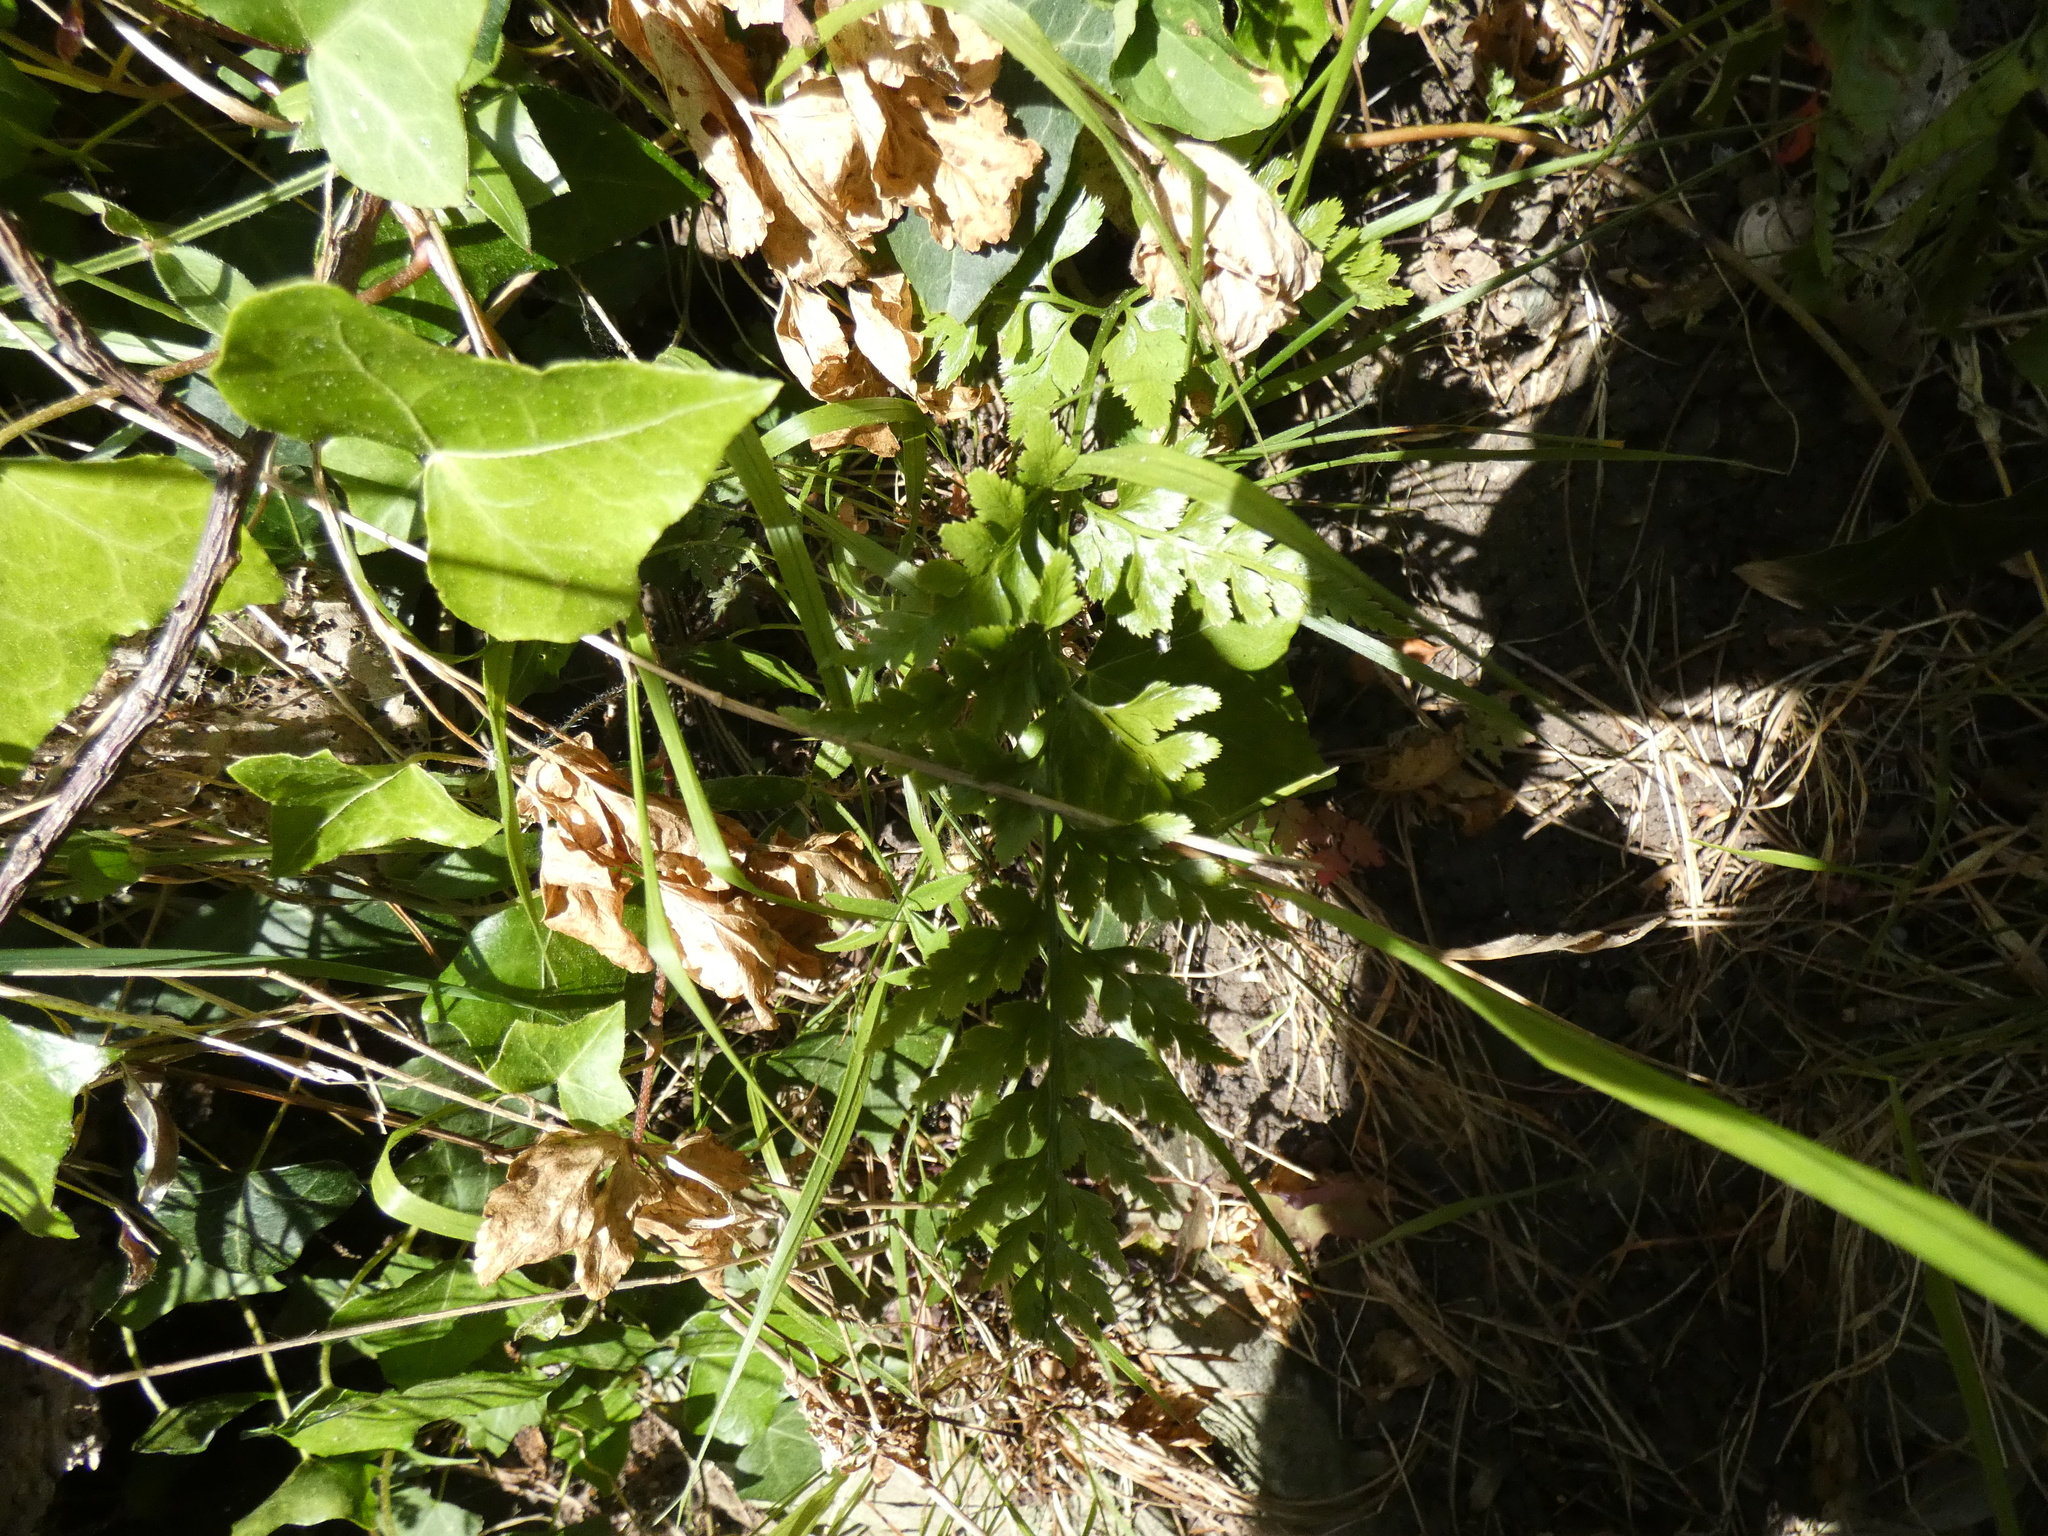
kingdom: Plantae
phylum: Tracheophyta
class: Polypodiopsida
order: Polypodiales
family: Aspleniaceae
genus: Asplenium
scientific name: Asplenium adiantum-nigrum
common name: Black spleenwort
